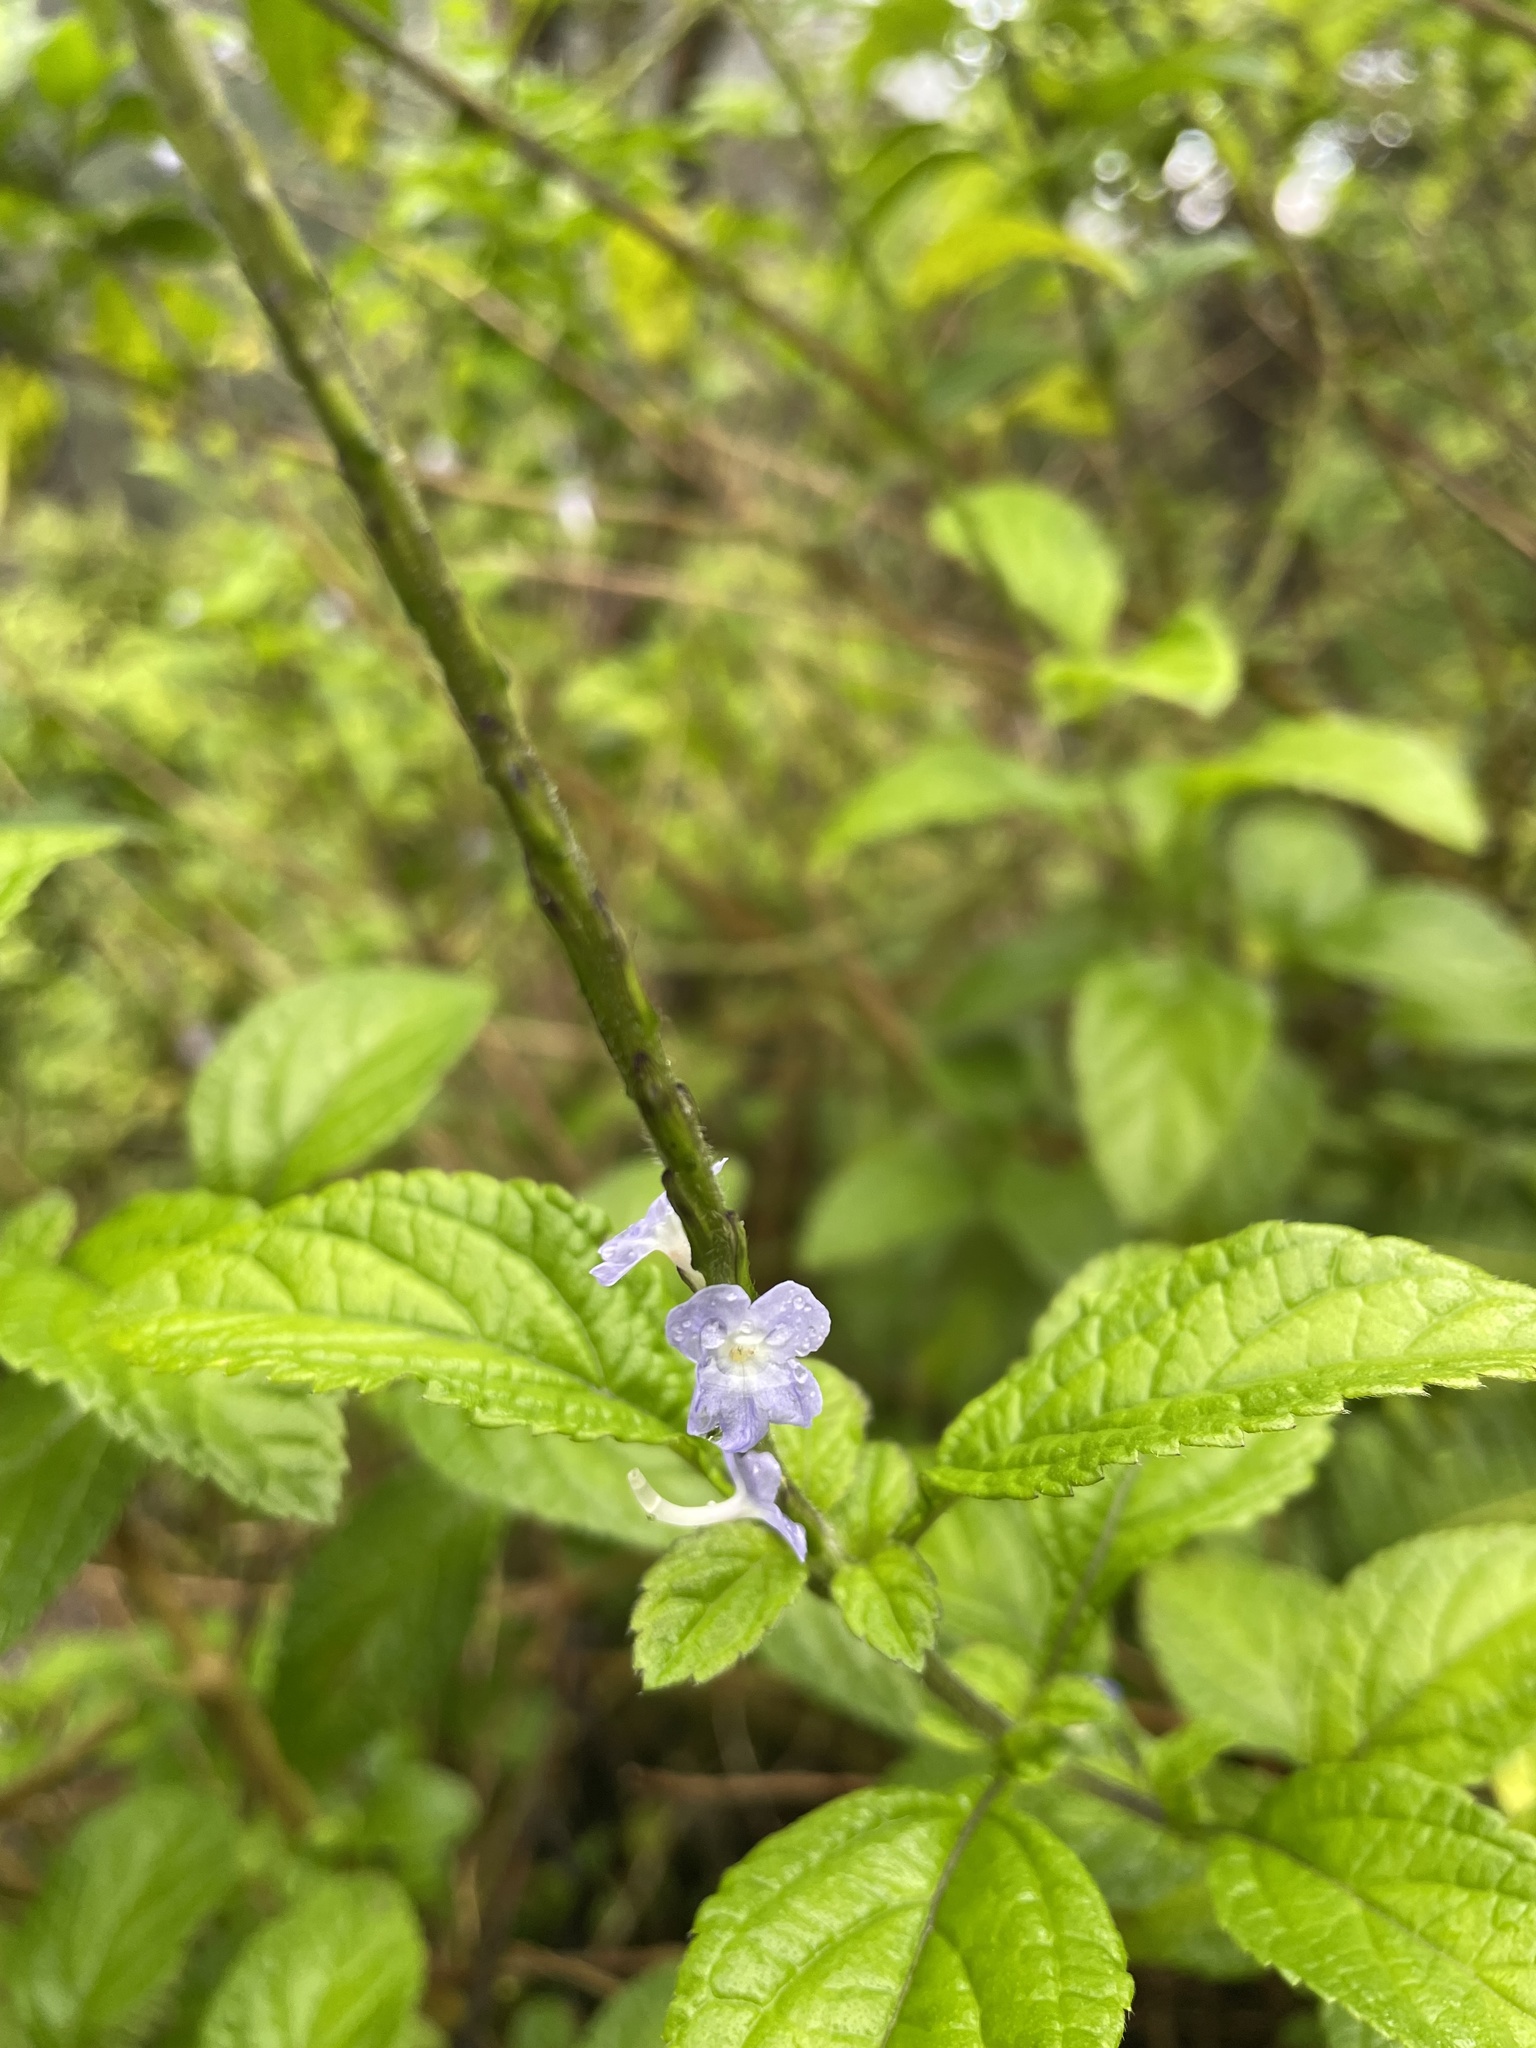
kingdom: Plantae
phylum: Tracheophyta
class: Magnoliopsida
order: Lamiales
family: Verbenaceae
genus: Stachytarpheta
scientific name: Stachytarpheta cayennensis
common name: Cayenne porterweed
